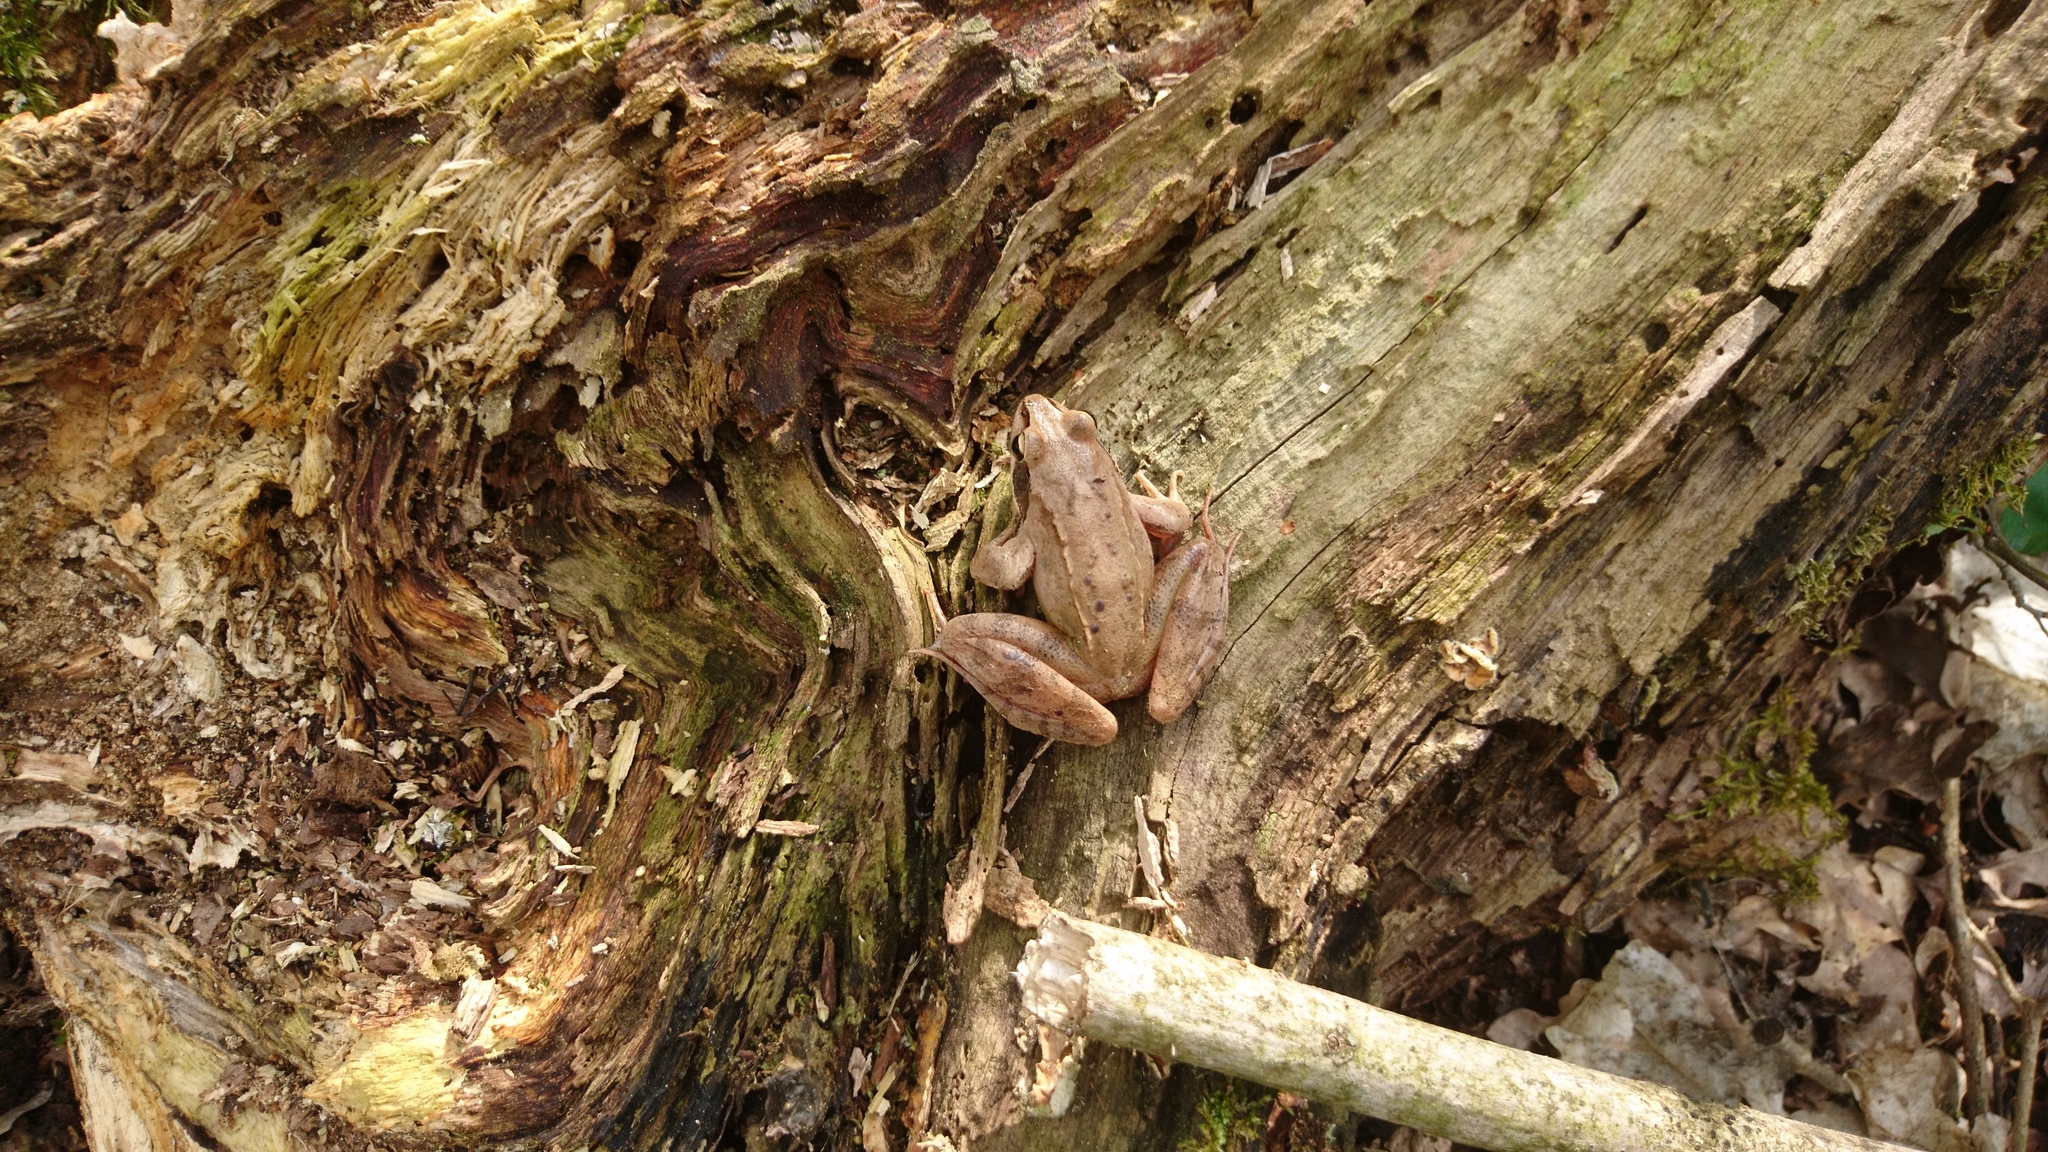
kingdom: Animalia
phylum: Chordata
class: Amphibia
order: Anura
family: Ranidae
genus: Rana
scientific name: Rana dalmatina
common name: Agile frog
